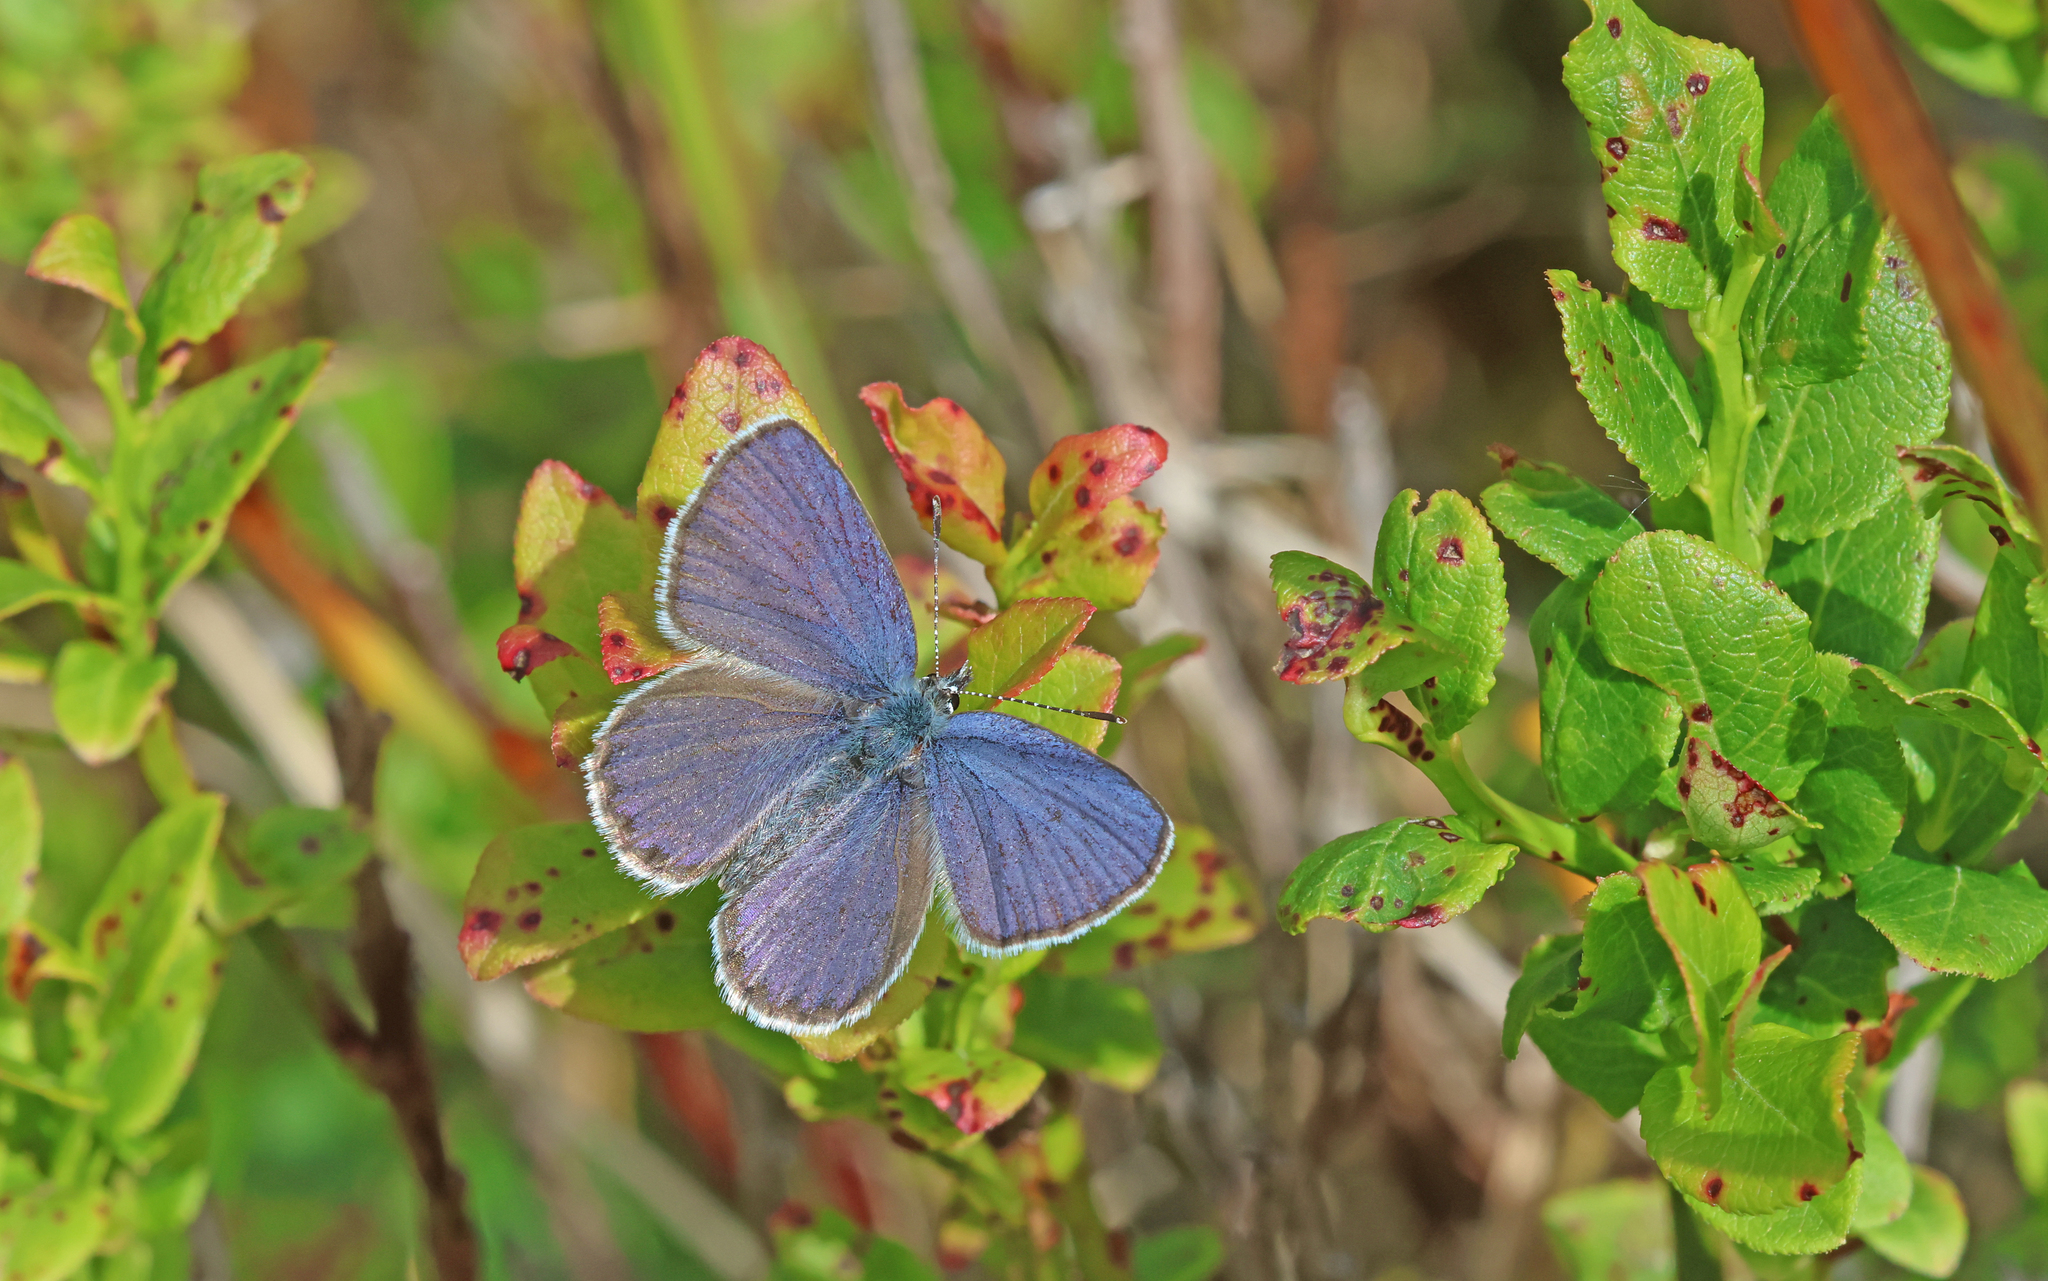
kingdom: Animalia
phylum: Arthropoda
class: Insecta
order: Lepidoptera
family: Lycaenidae
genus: Vacciniina
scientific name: Vacciniina optilete
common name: Cranberry blue
